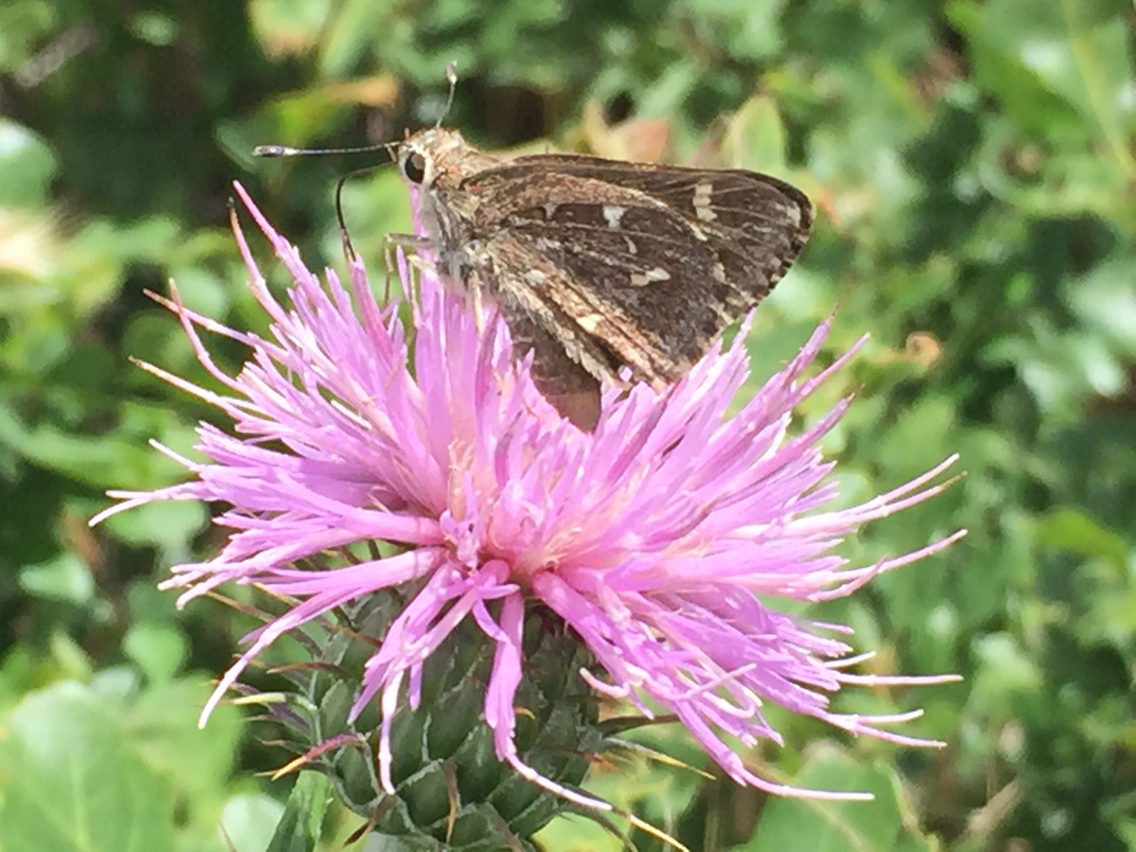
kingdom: Animalia
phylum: Arthropoda
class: Insecta
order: Lepidoptera
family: Hesperiidae
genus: Atrytonopsis
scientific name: Atrytonopsis python
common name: Python skipper
